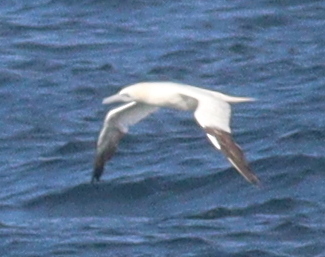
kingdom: Animalia
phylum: Chordata
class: Aves
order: Suliformes
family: Sulidae
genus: Morus
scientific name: Morus bassanus
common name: Northern gannet
